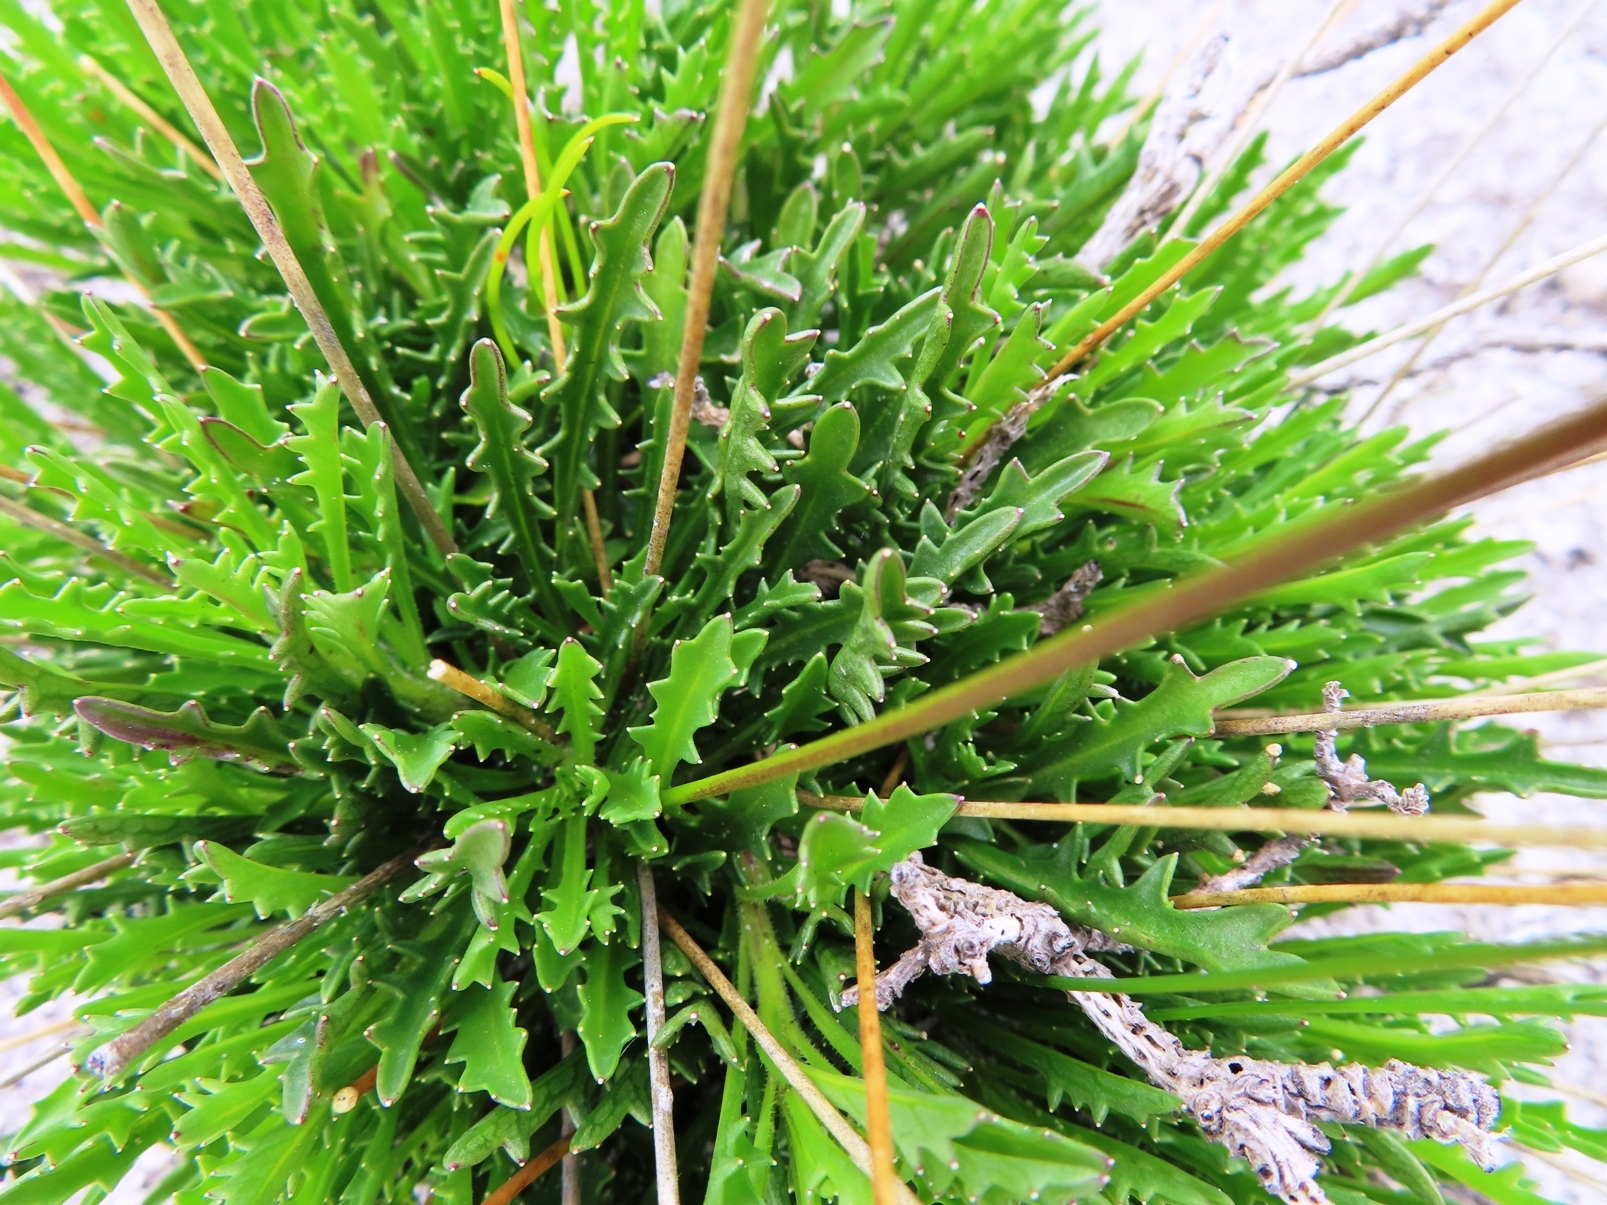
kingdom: Plantae
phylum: Tracheophyta
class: Liliopsida
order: Asparagales
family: Lanariaceae
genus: Lanaria
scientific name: Lanaria lanata
